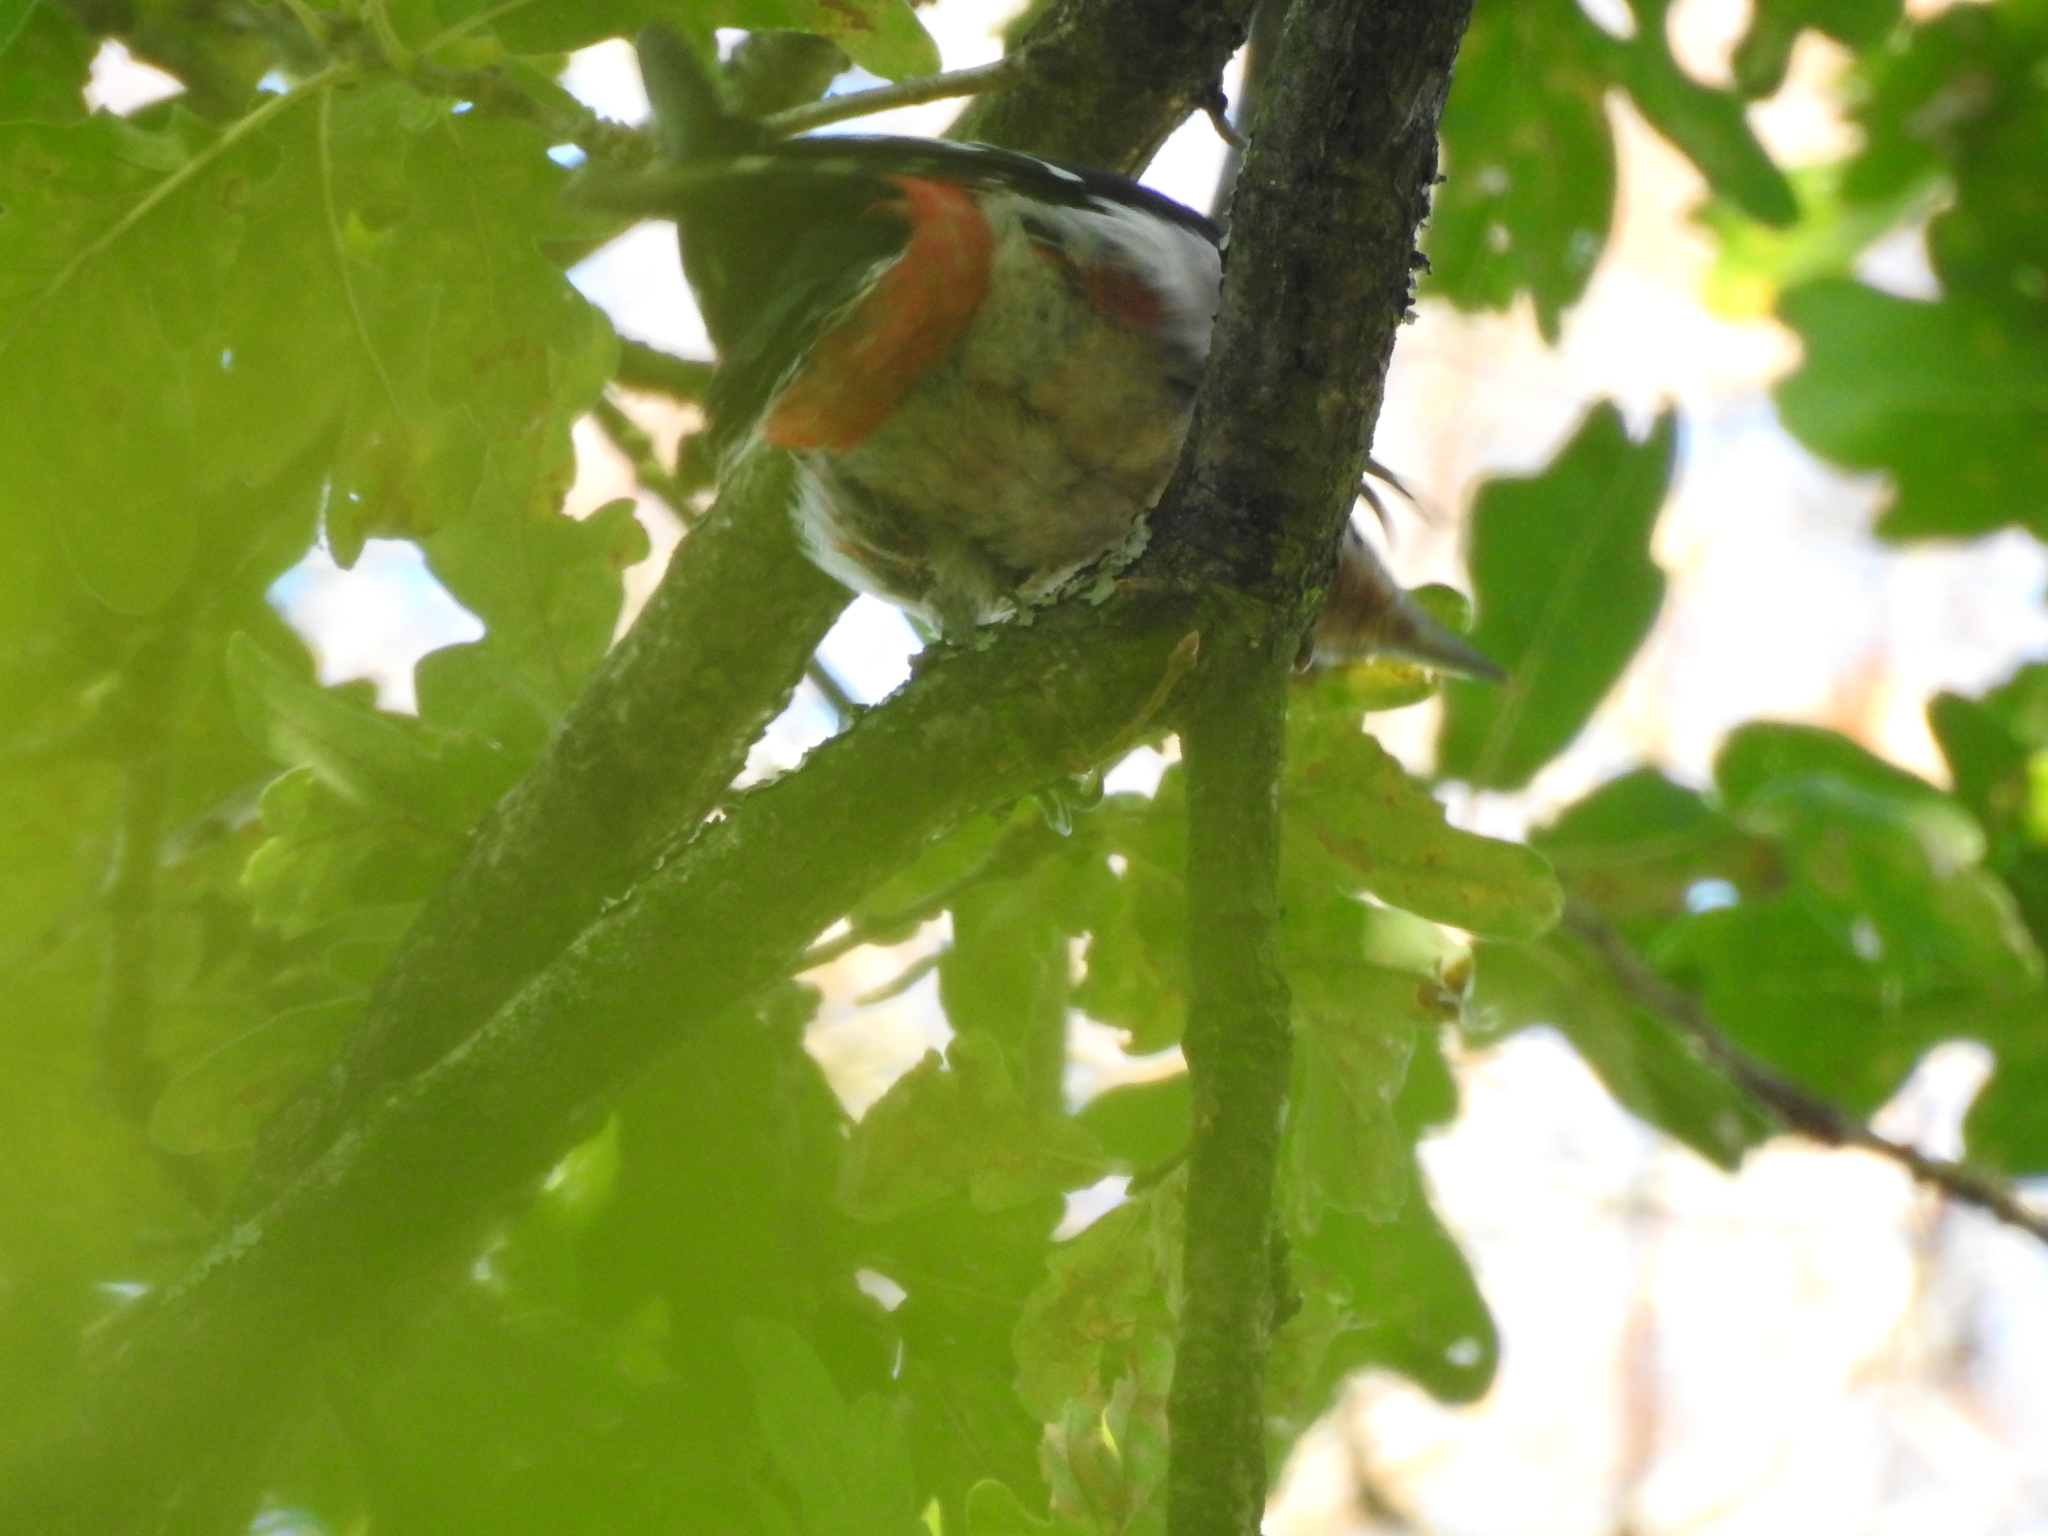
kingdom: Animalia
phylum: Chordata
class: Aves
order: Piciformes
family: Picidae
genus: Dendrocopos
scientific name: Dendrocopos major
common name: Great spotted woodpecker
